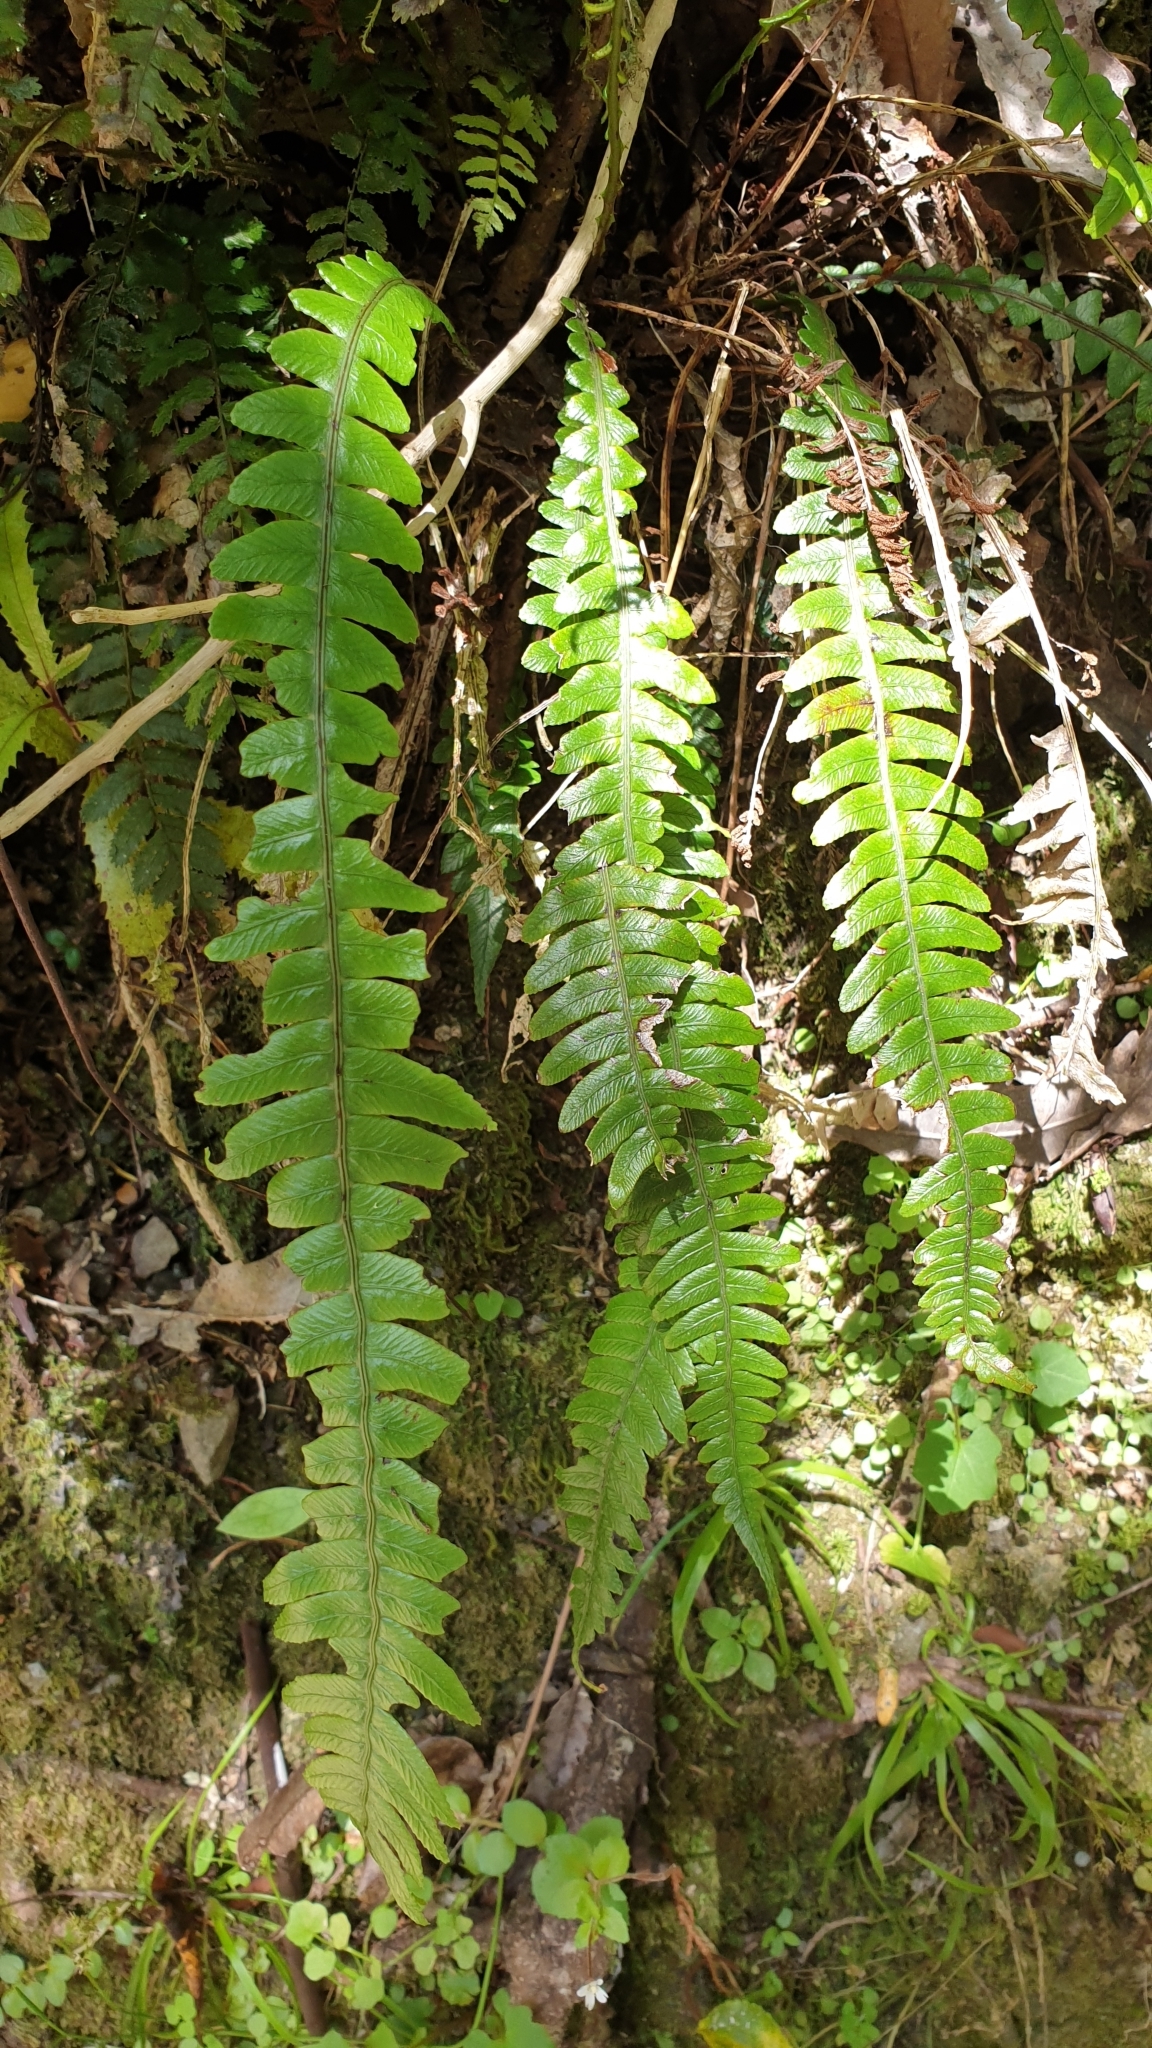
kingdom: Plantae
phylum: Tracheophyta
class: Polypodiopsida
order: Polypodiales
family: Blechnaceae
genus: Austroblechnum
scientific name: Austroblechnum lanceolatum
